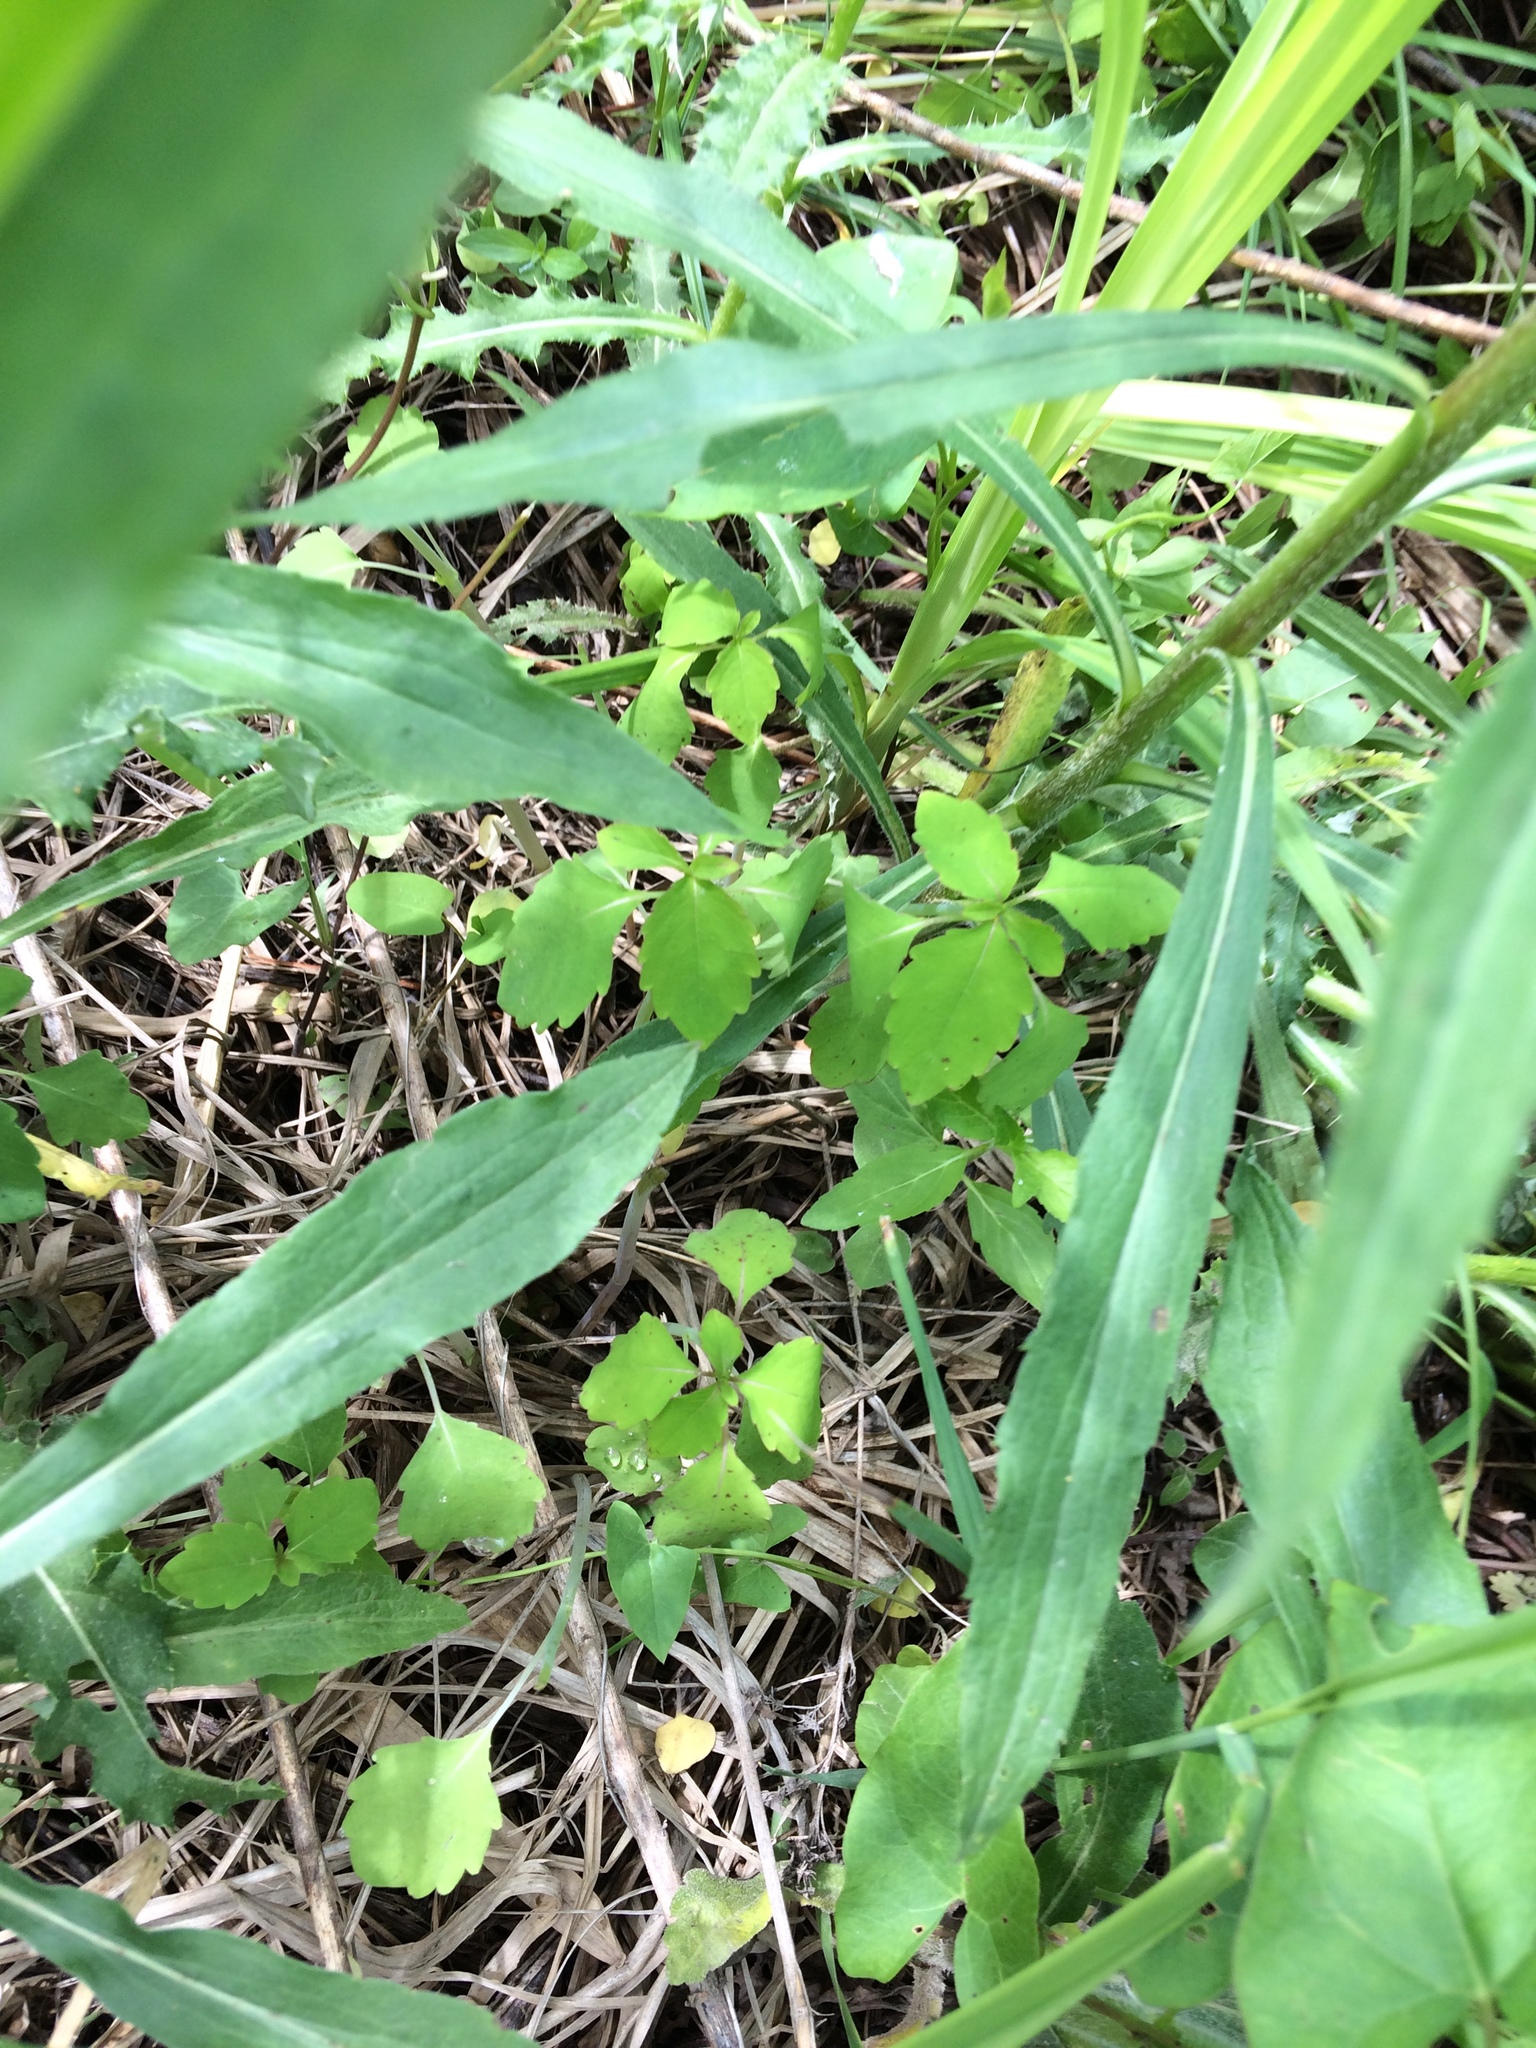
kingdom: Plantae
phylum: Tracheophyta
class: Magnoliopsida
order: Ericales
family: Balsaminaceae
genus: Impatiens
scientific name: Impatiens capensis
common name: Orange balsam
